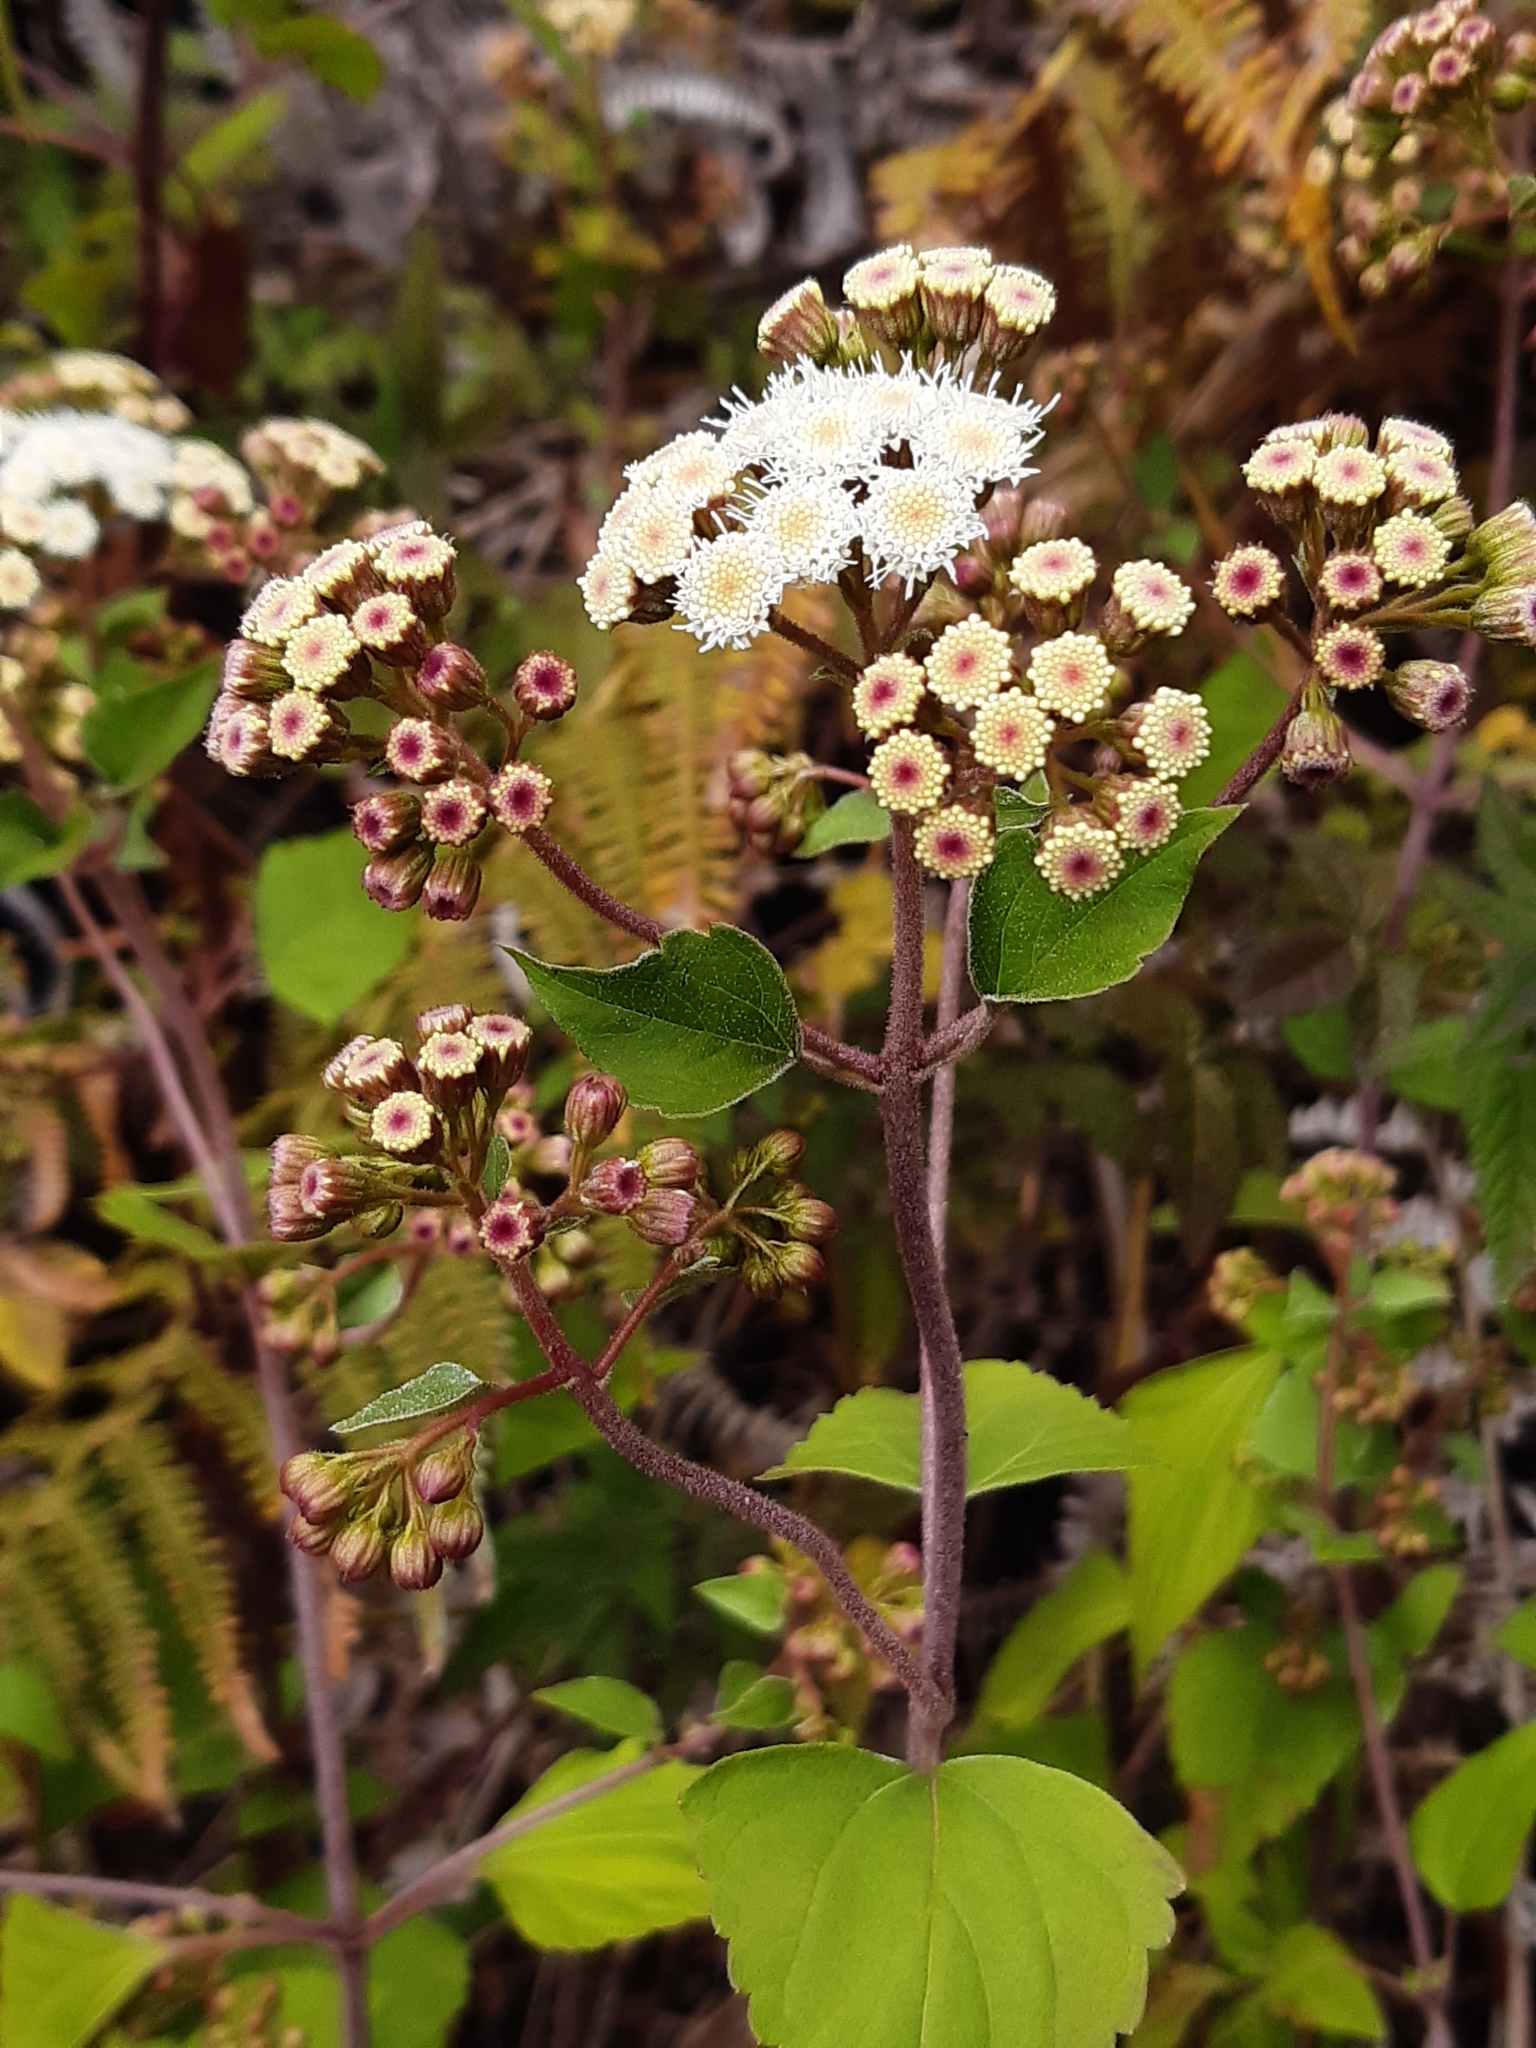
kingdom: Plantae
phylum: Tracheophyta
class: Magnoliopsida
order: Asterales
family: Asteraceae
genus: Ageratina
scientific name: Ageratina adenophora
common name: Sticky snakeroot
